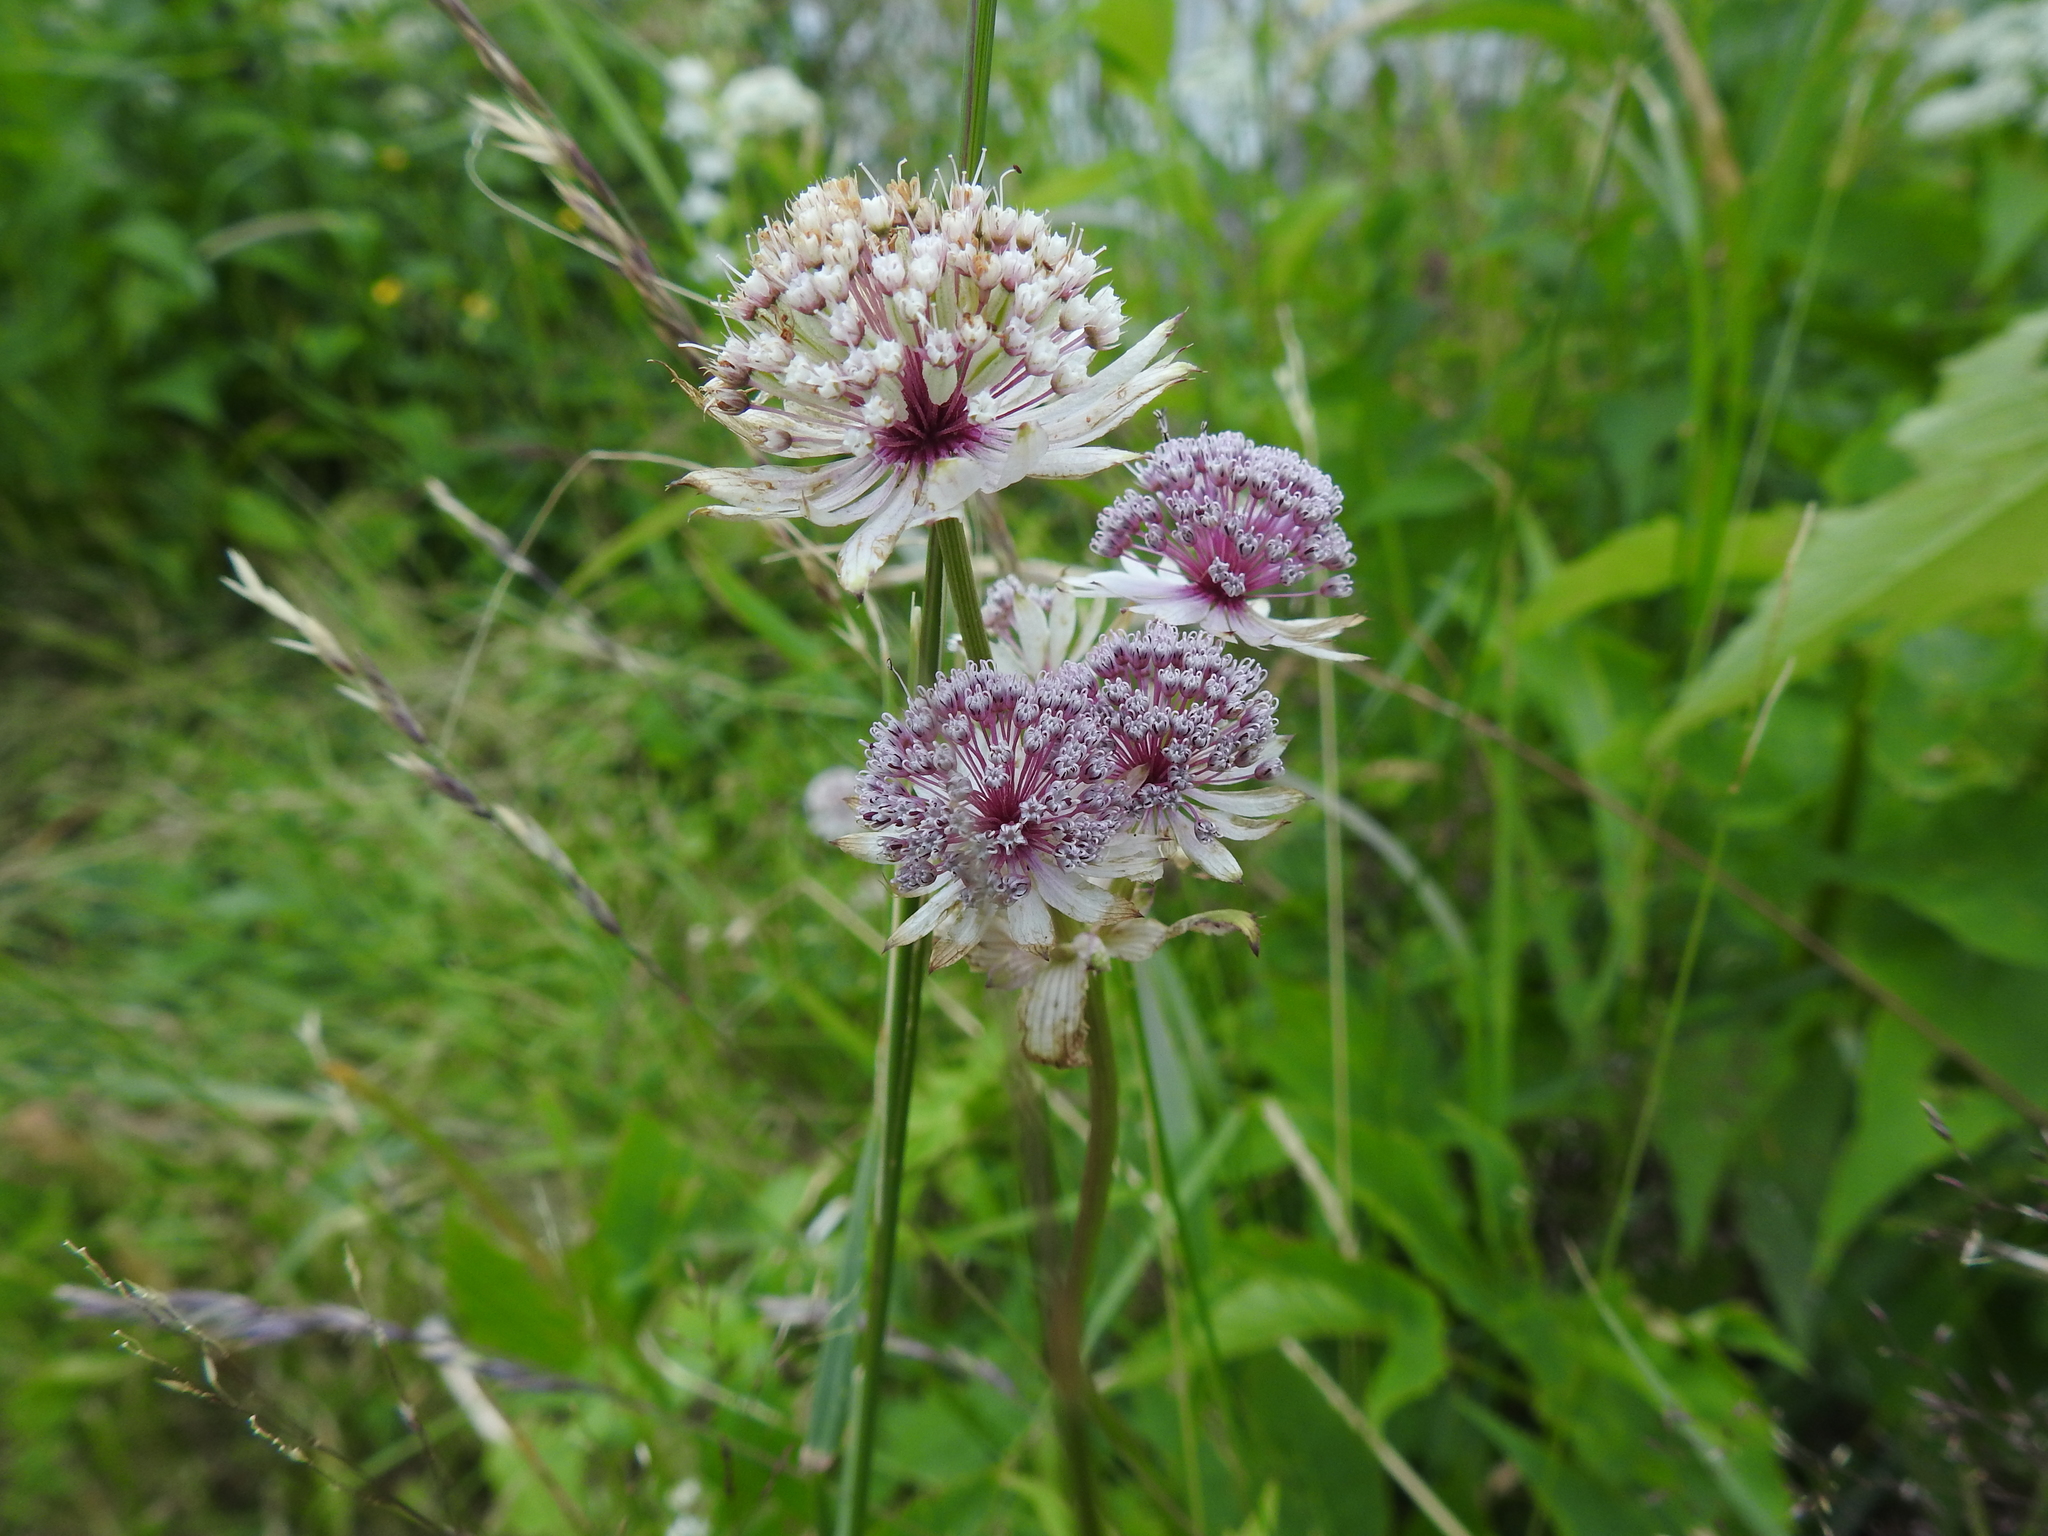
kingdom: Plantae
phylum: Tracheophyta
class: Magnoliopsida
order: Apiales
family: Apiaceae
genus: Astrantia
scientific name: Astrantia major
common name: Greater masterwort
